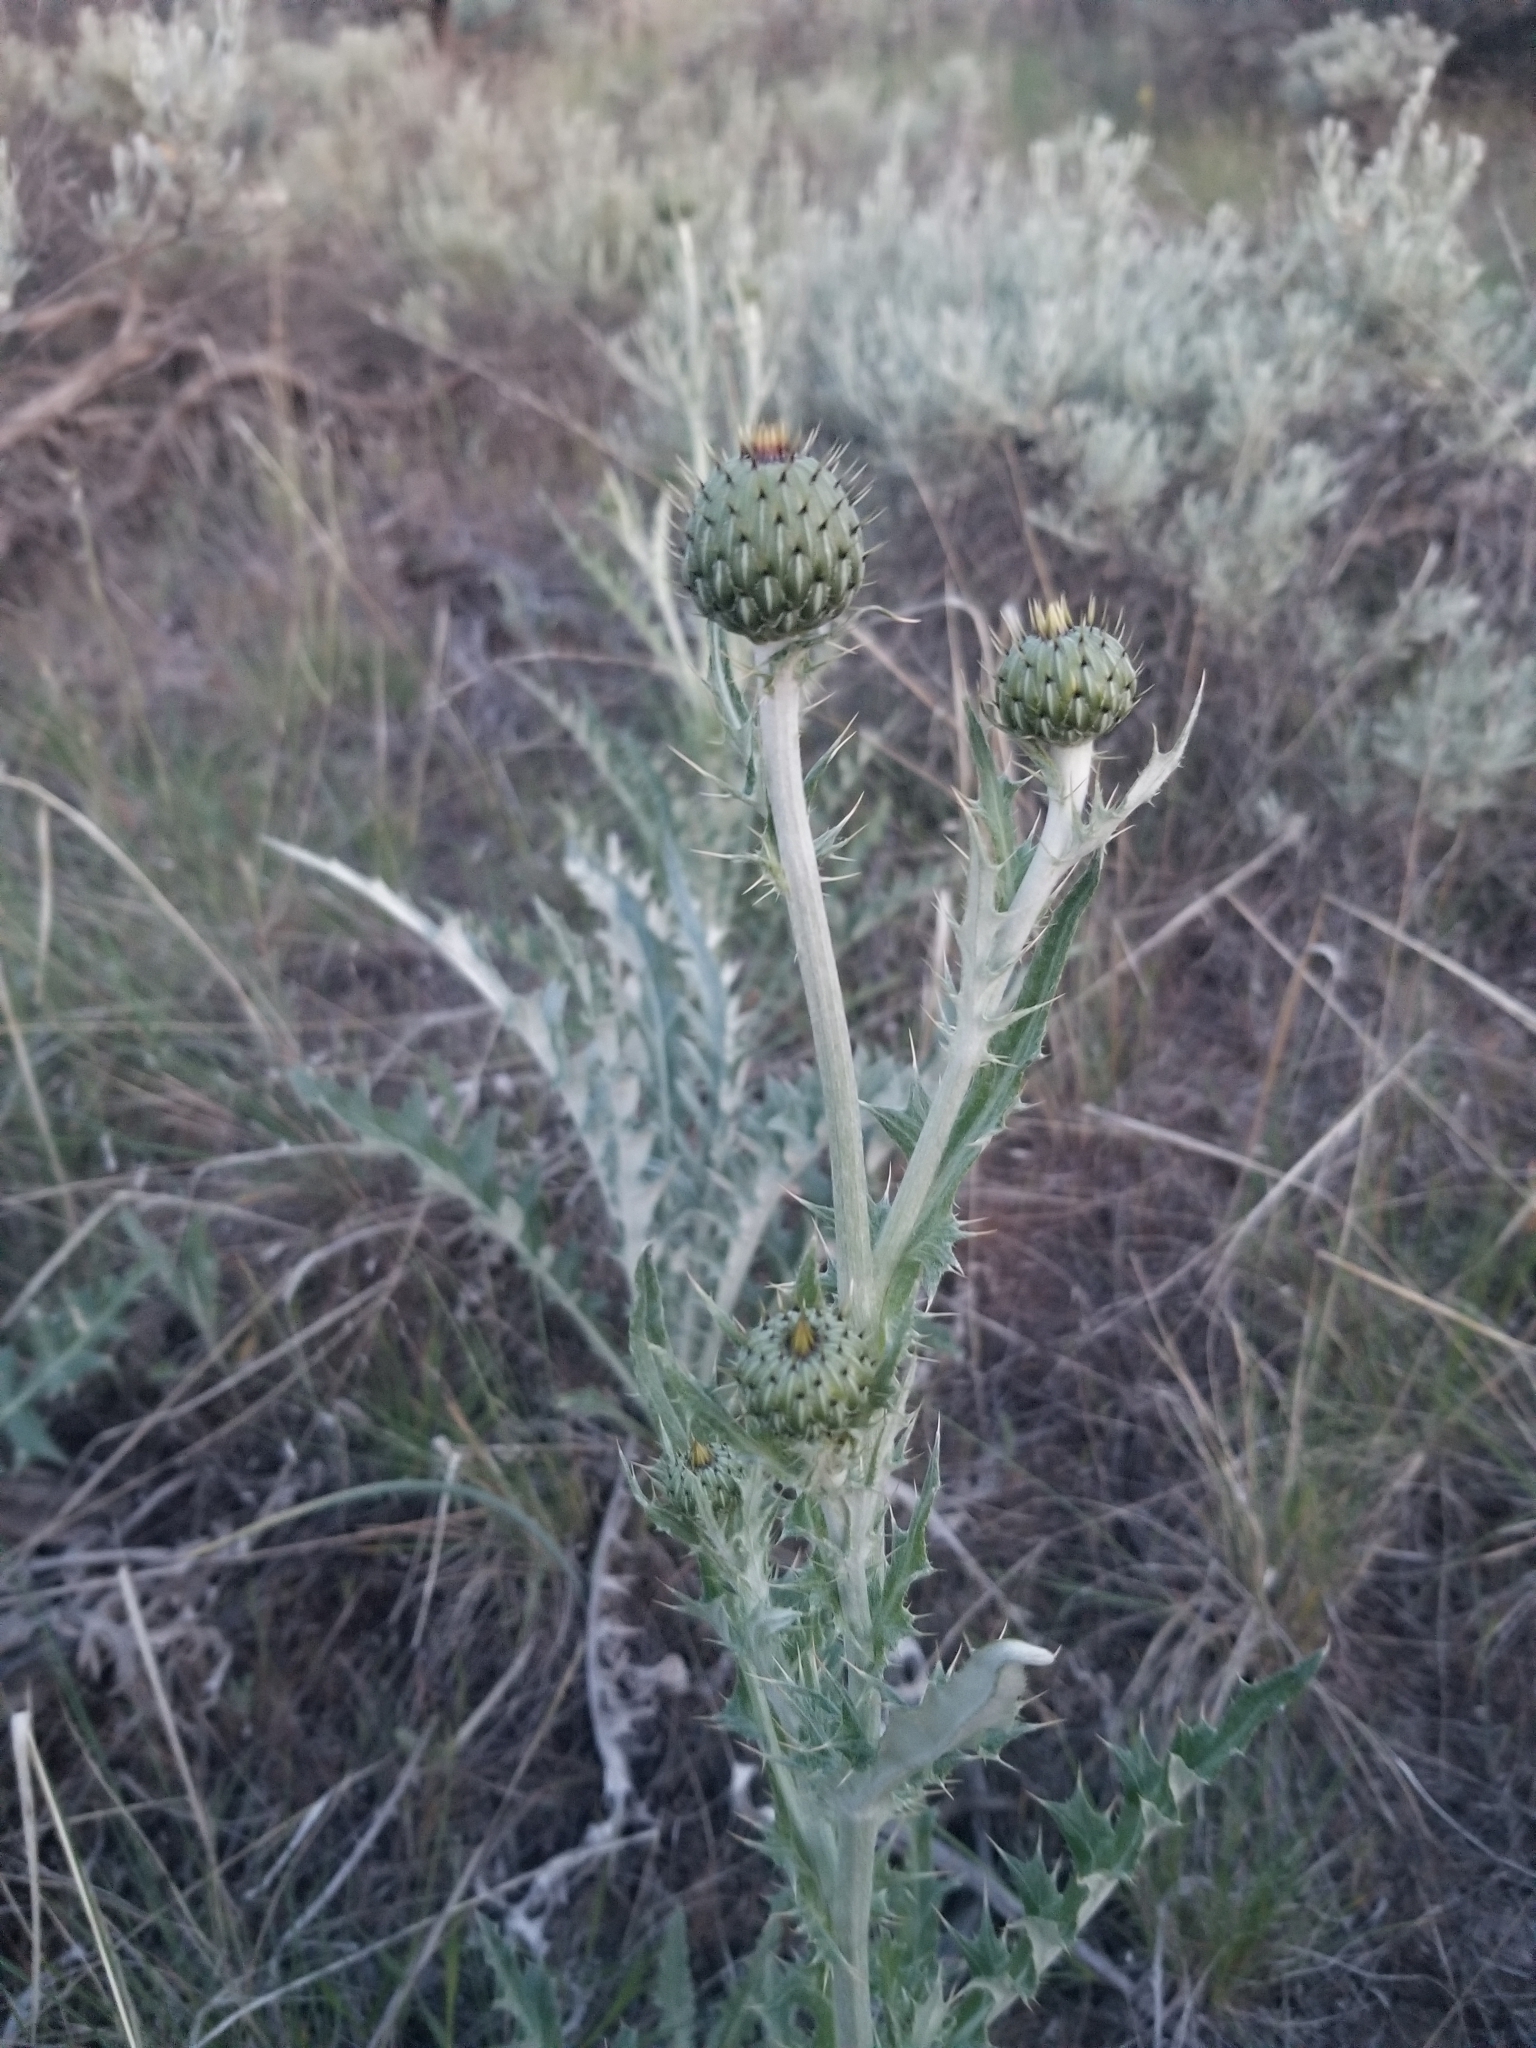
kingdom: Plantae
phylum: Tracheophyta
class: Magnoliopsida
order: Asterales
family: Asteraceae
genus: Cirsium
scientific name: Cirsium undulatum
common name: Pasture thistle
